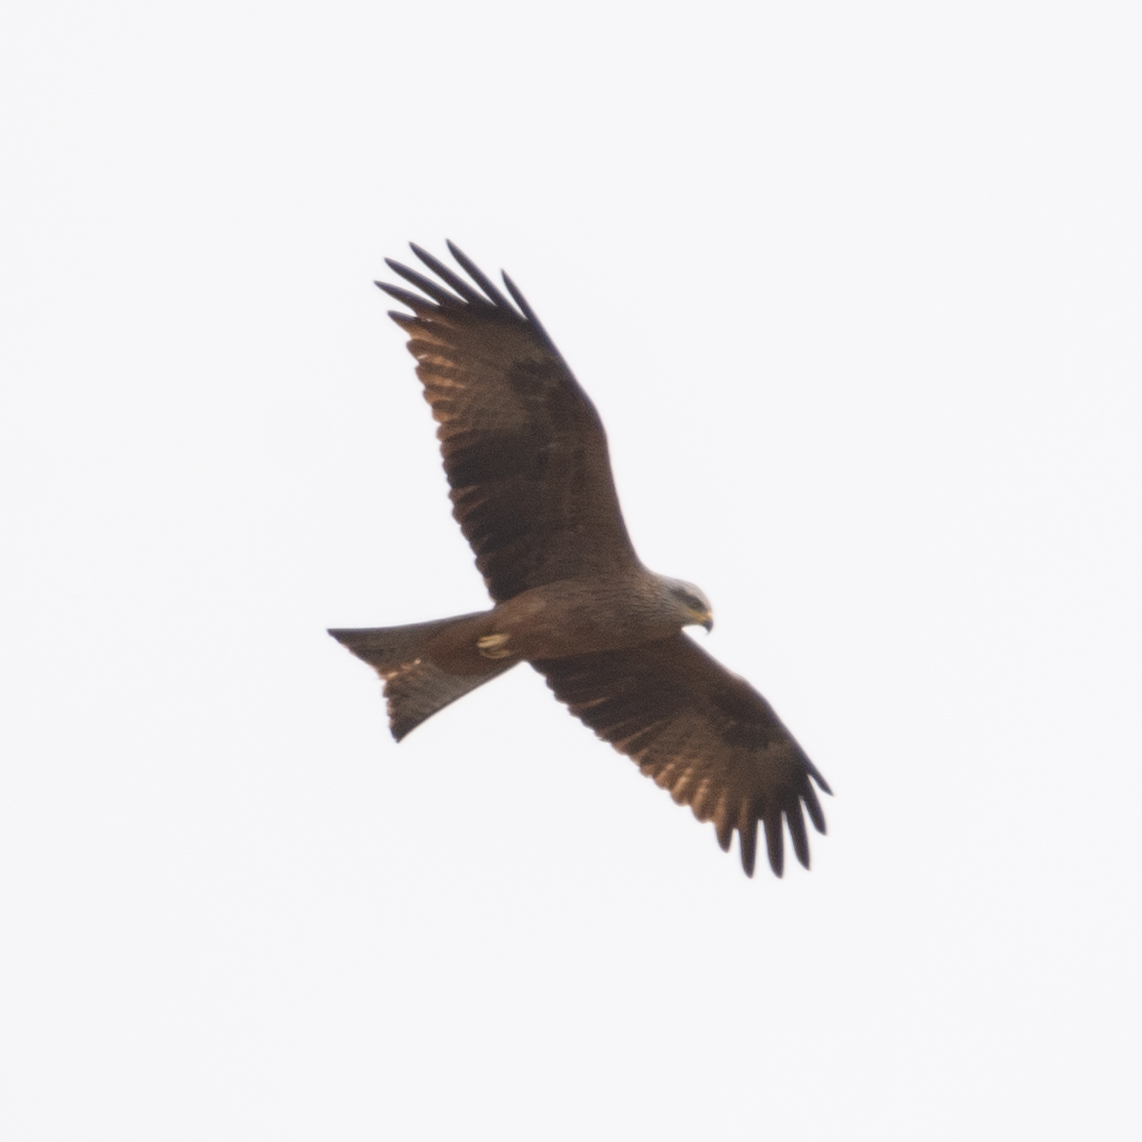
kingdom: Animalia
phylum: Chordata
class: Aves
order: Accipitriformes
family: Accipitridae
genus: Milvus
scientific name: Milvus migrans
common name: Black kite
